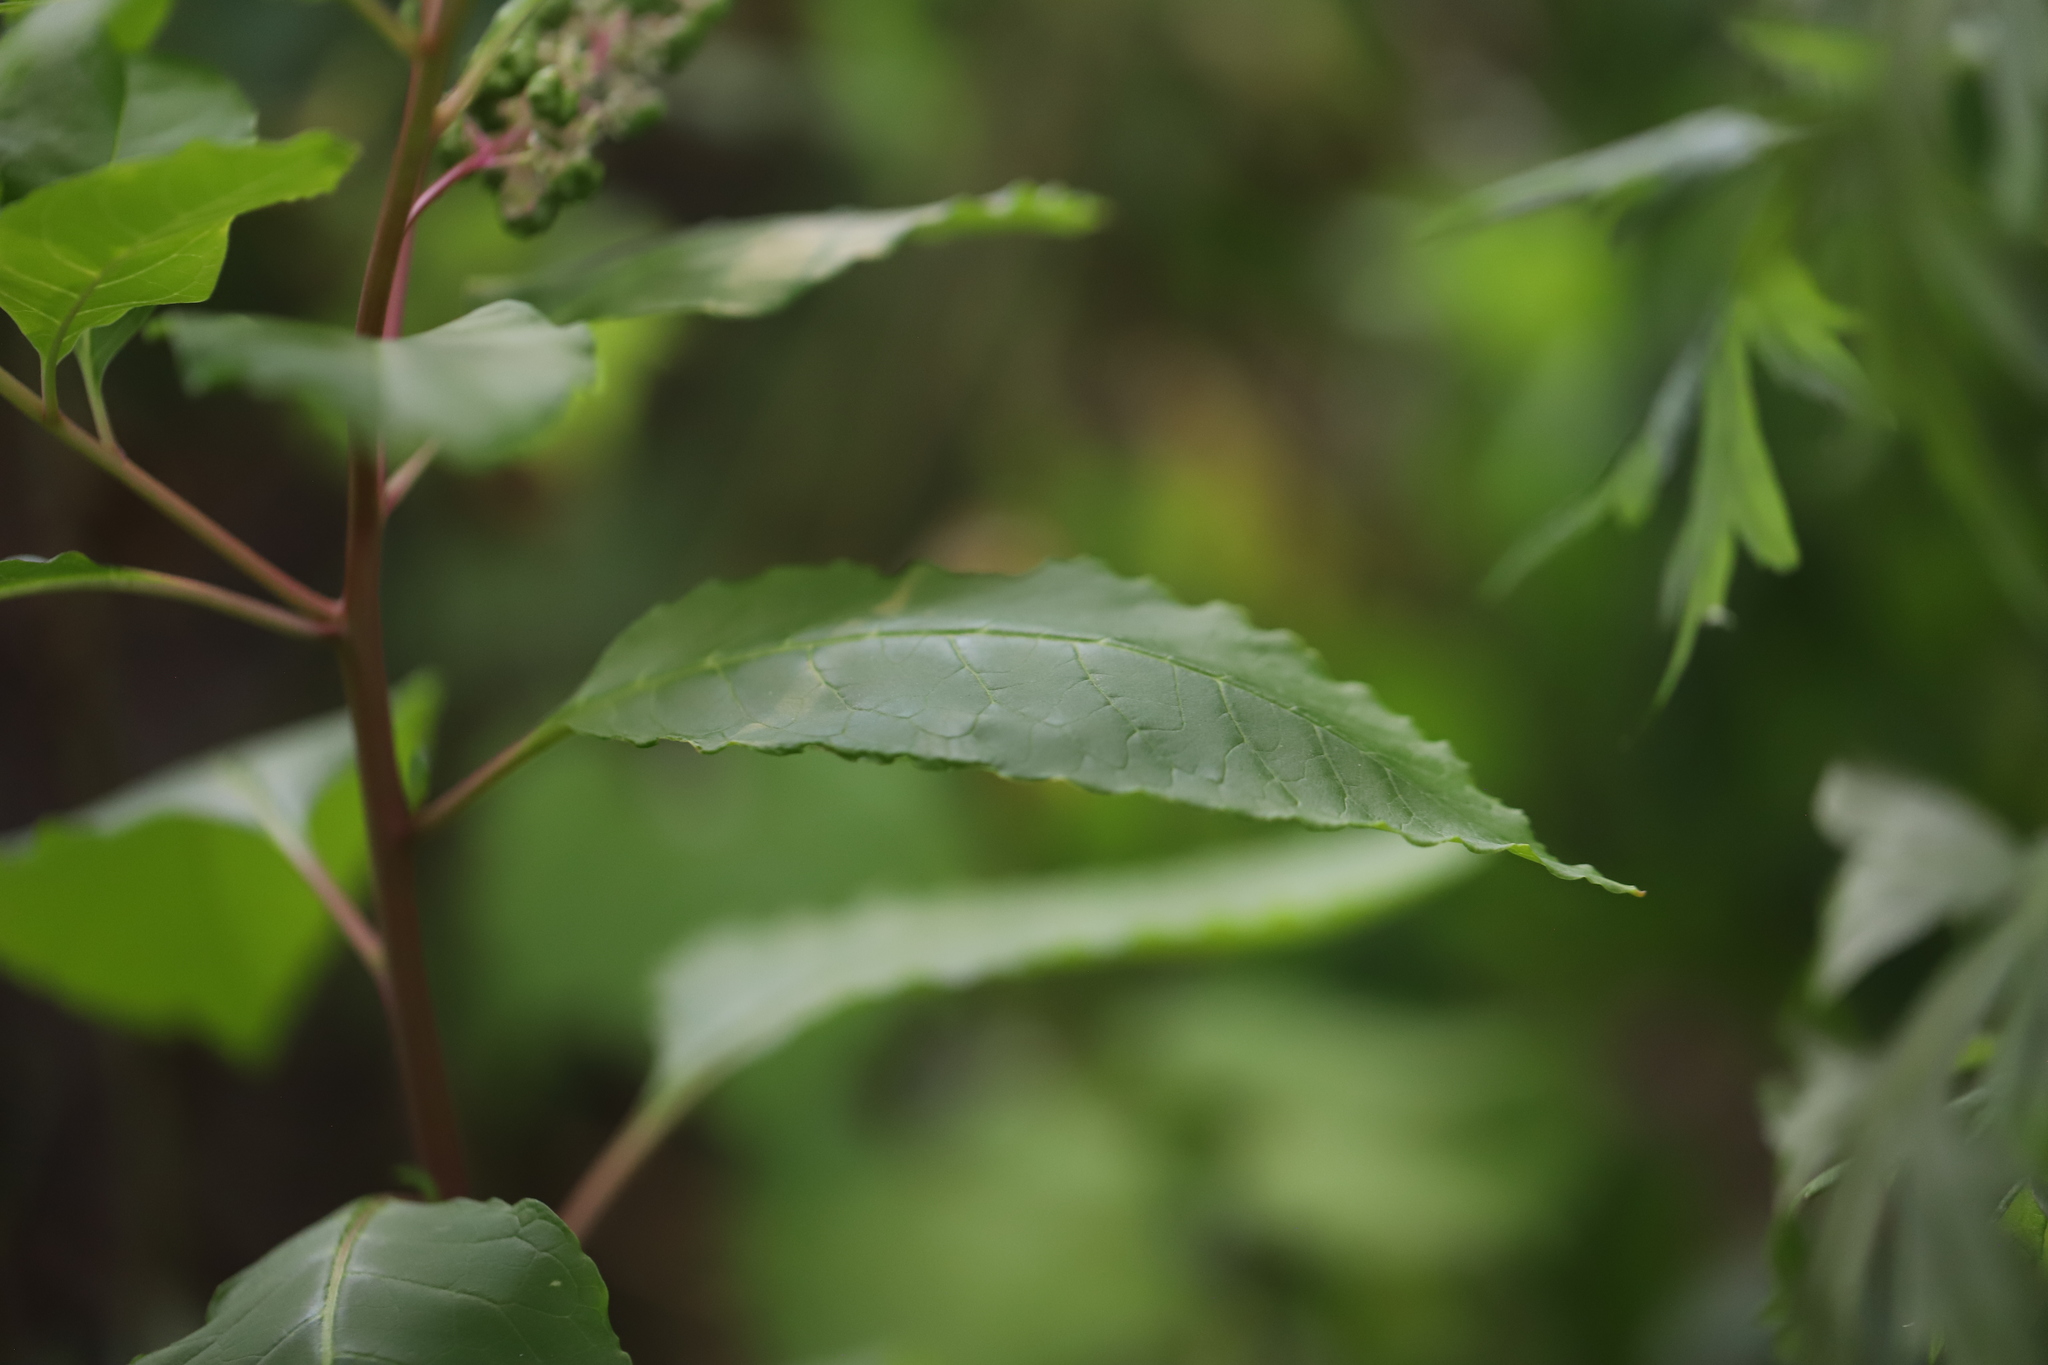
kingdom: Plantae
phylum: Tracheophyta
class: Magnoliopsida
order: Caryophyllales
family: Phytolaccaceae
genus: Phytolacca
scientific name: Phytolacca americana
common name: American pokeweed
